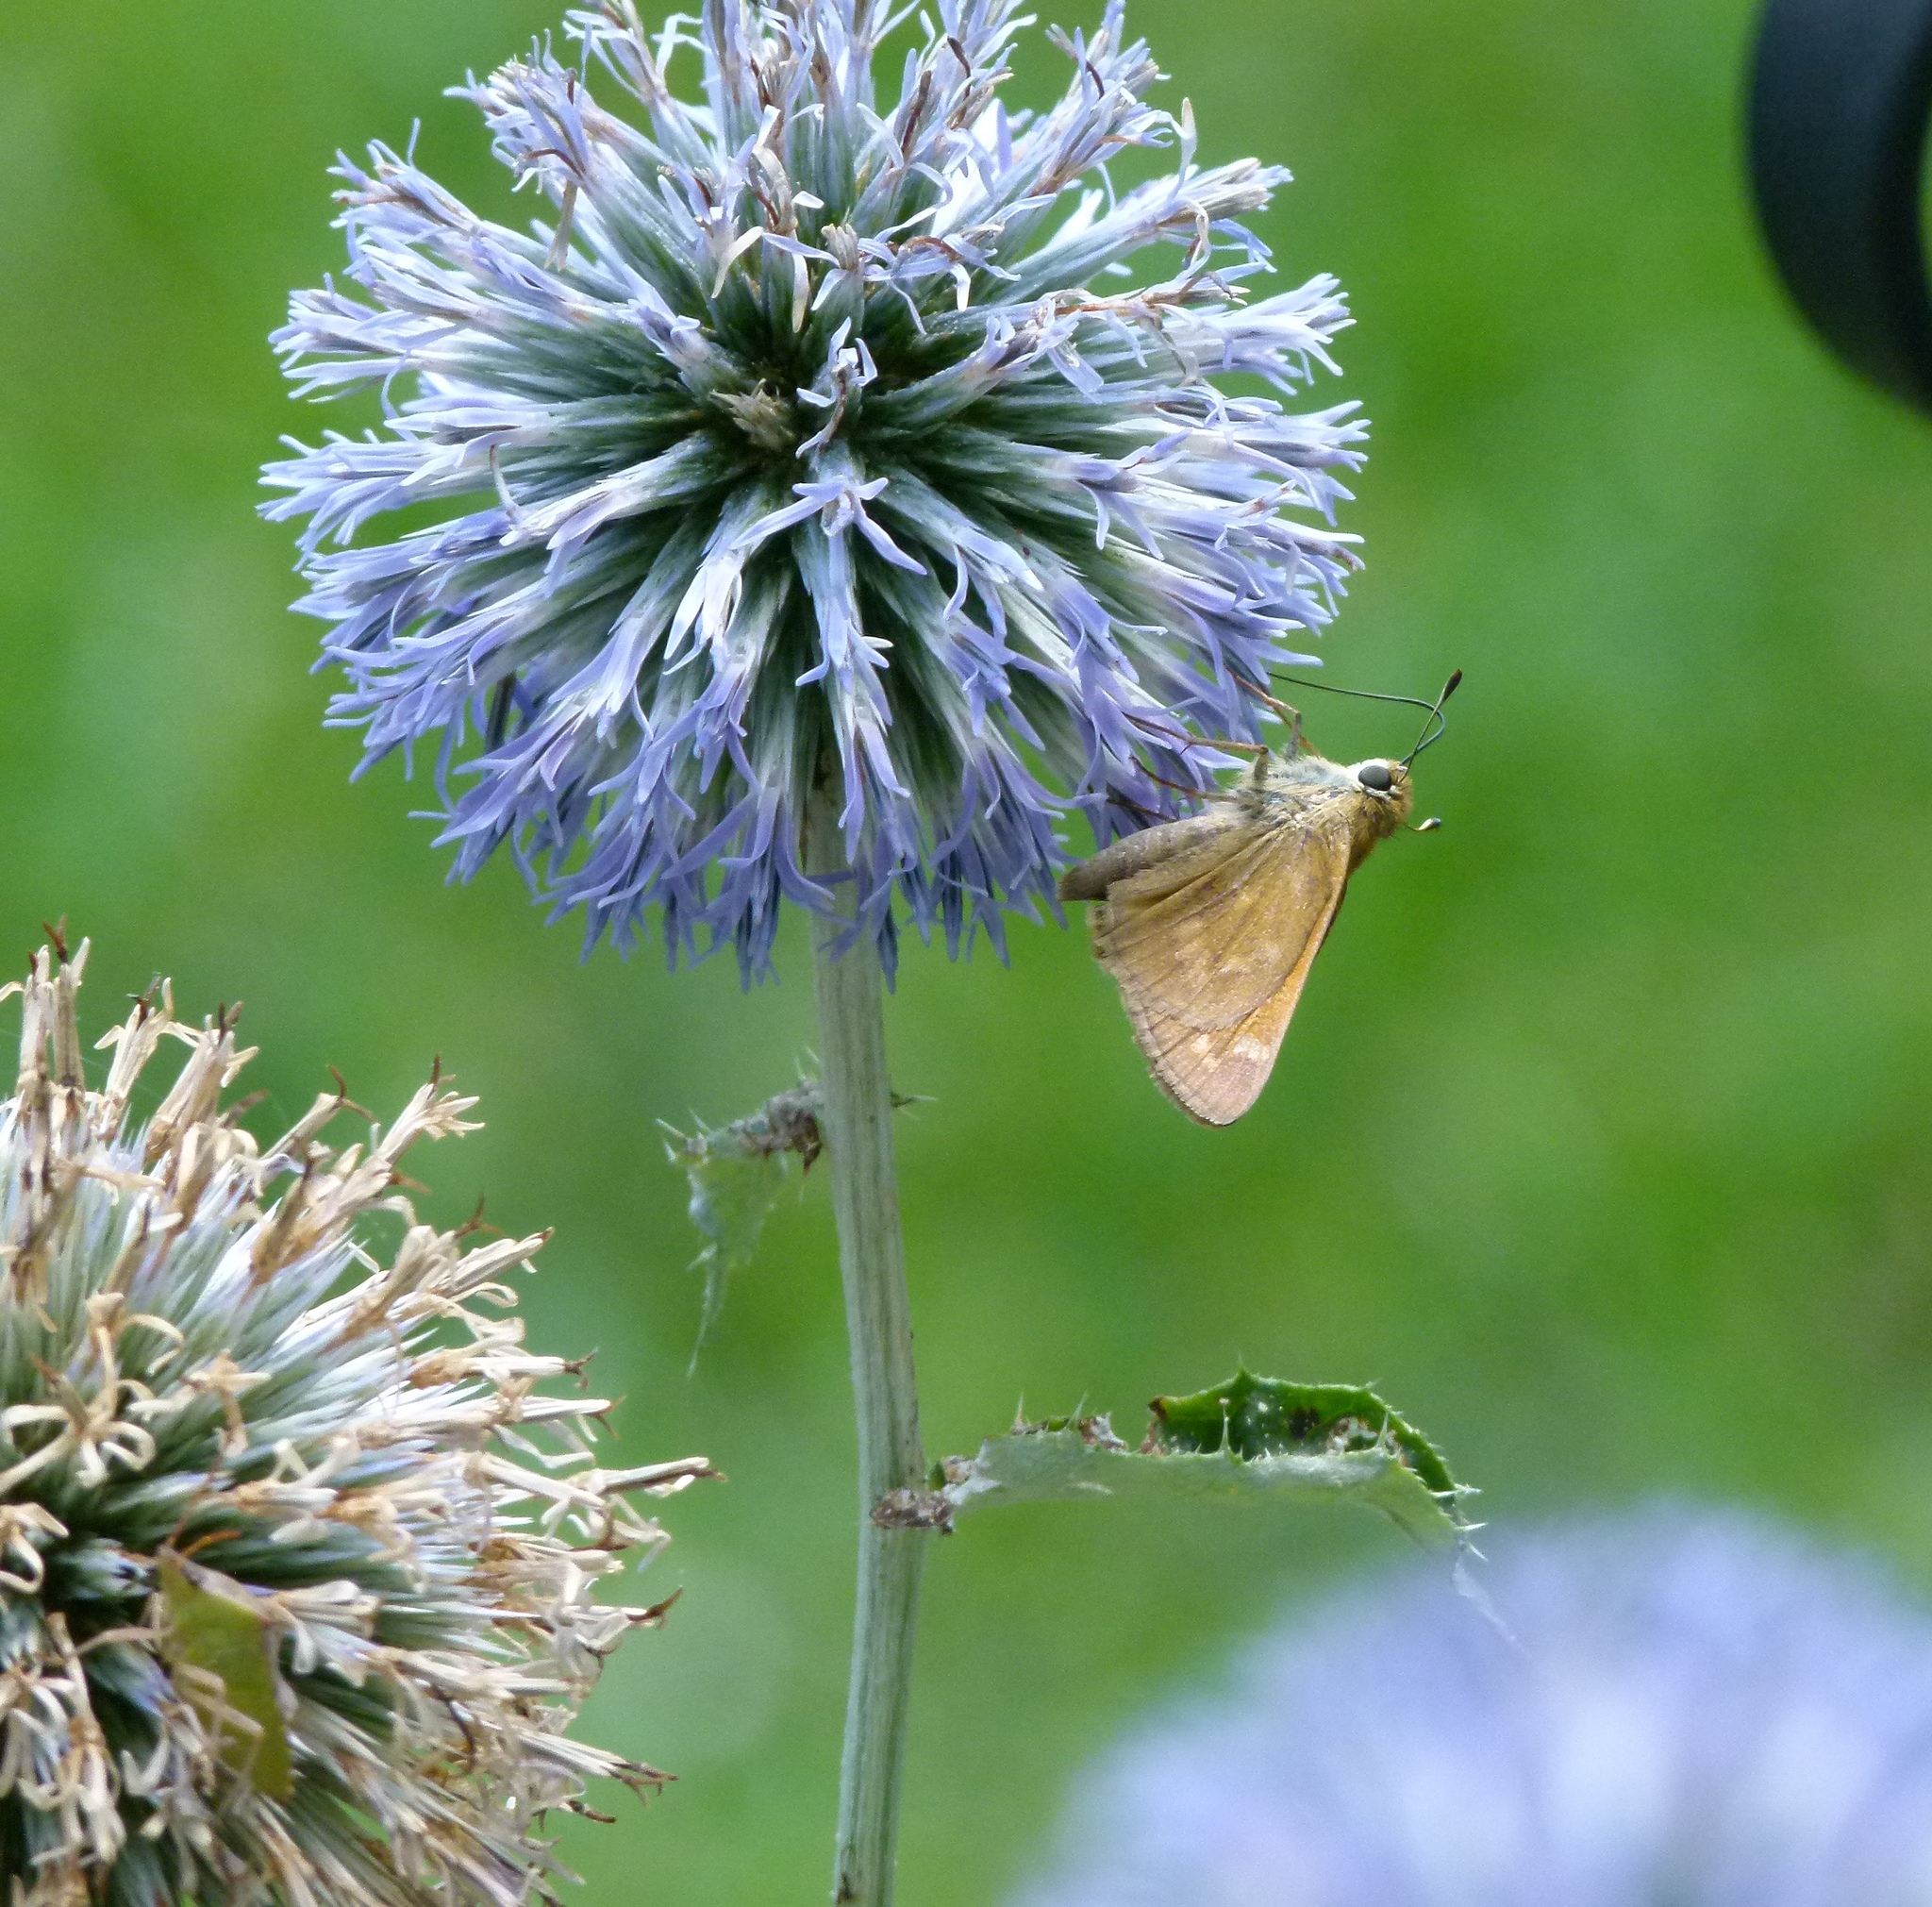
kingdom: Animalia
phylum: Arthropoda
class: Insecta
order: Lepidoptera
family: Hesperiidae
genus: Atalopedes
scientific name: Atalopedes
